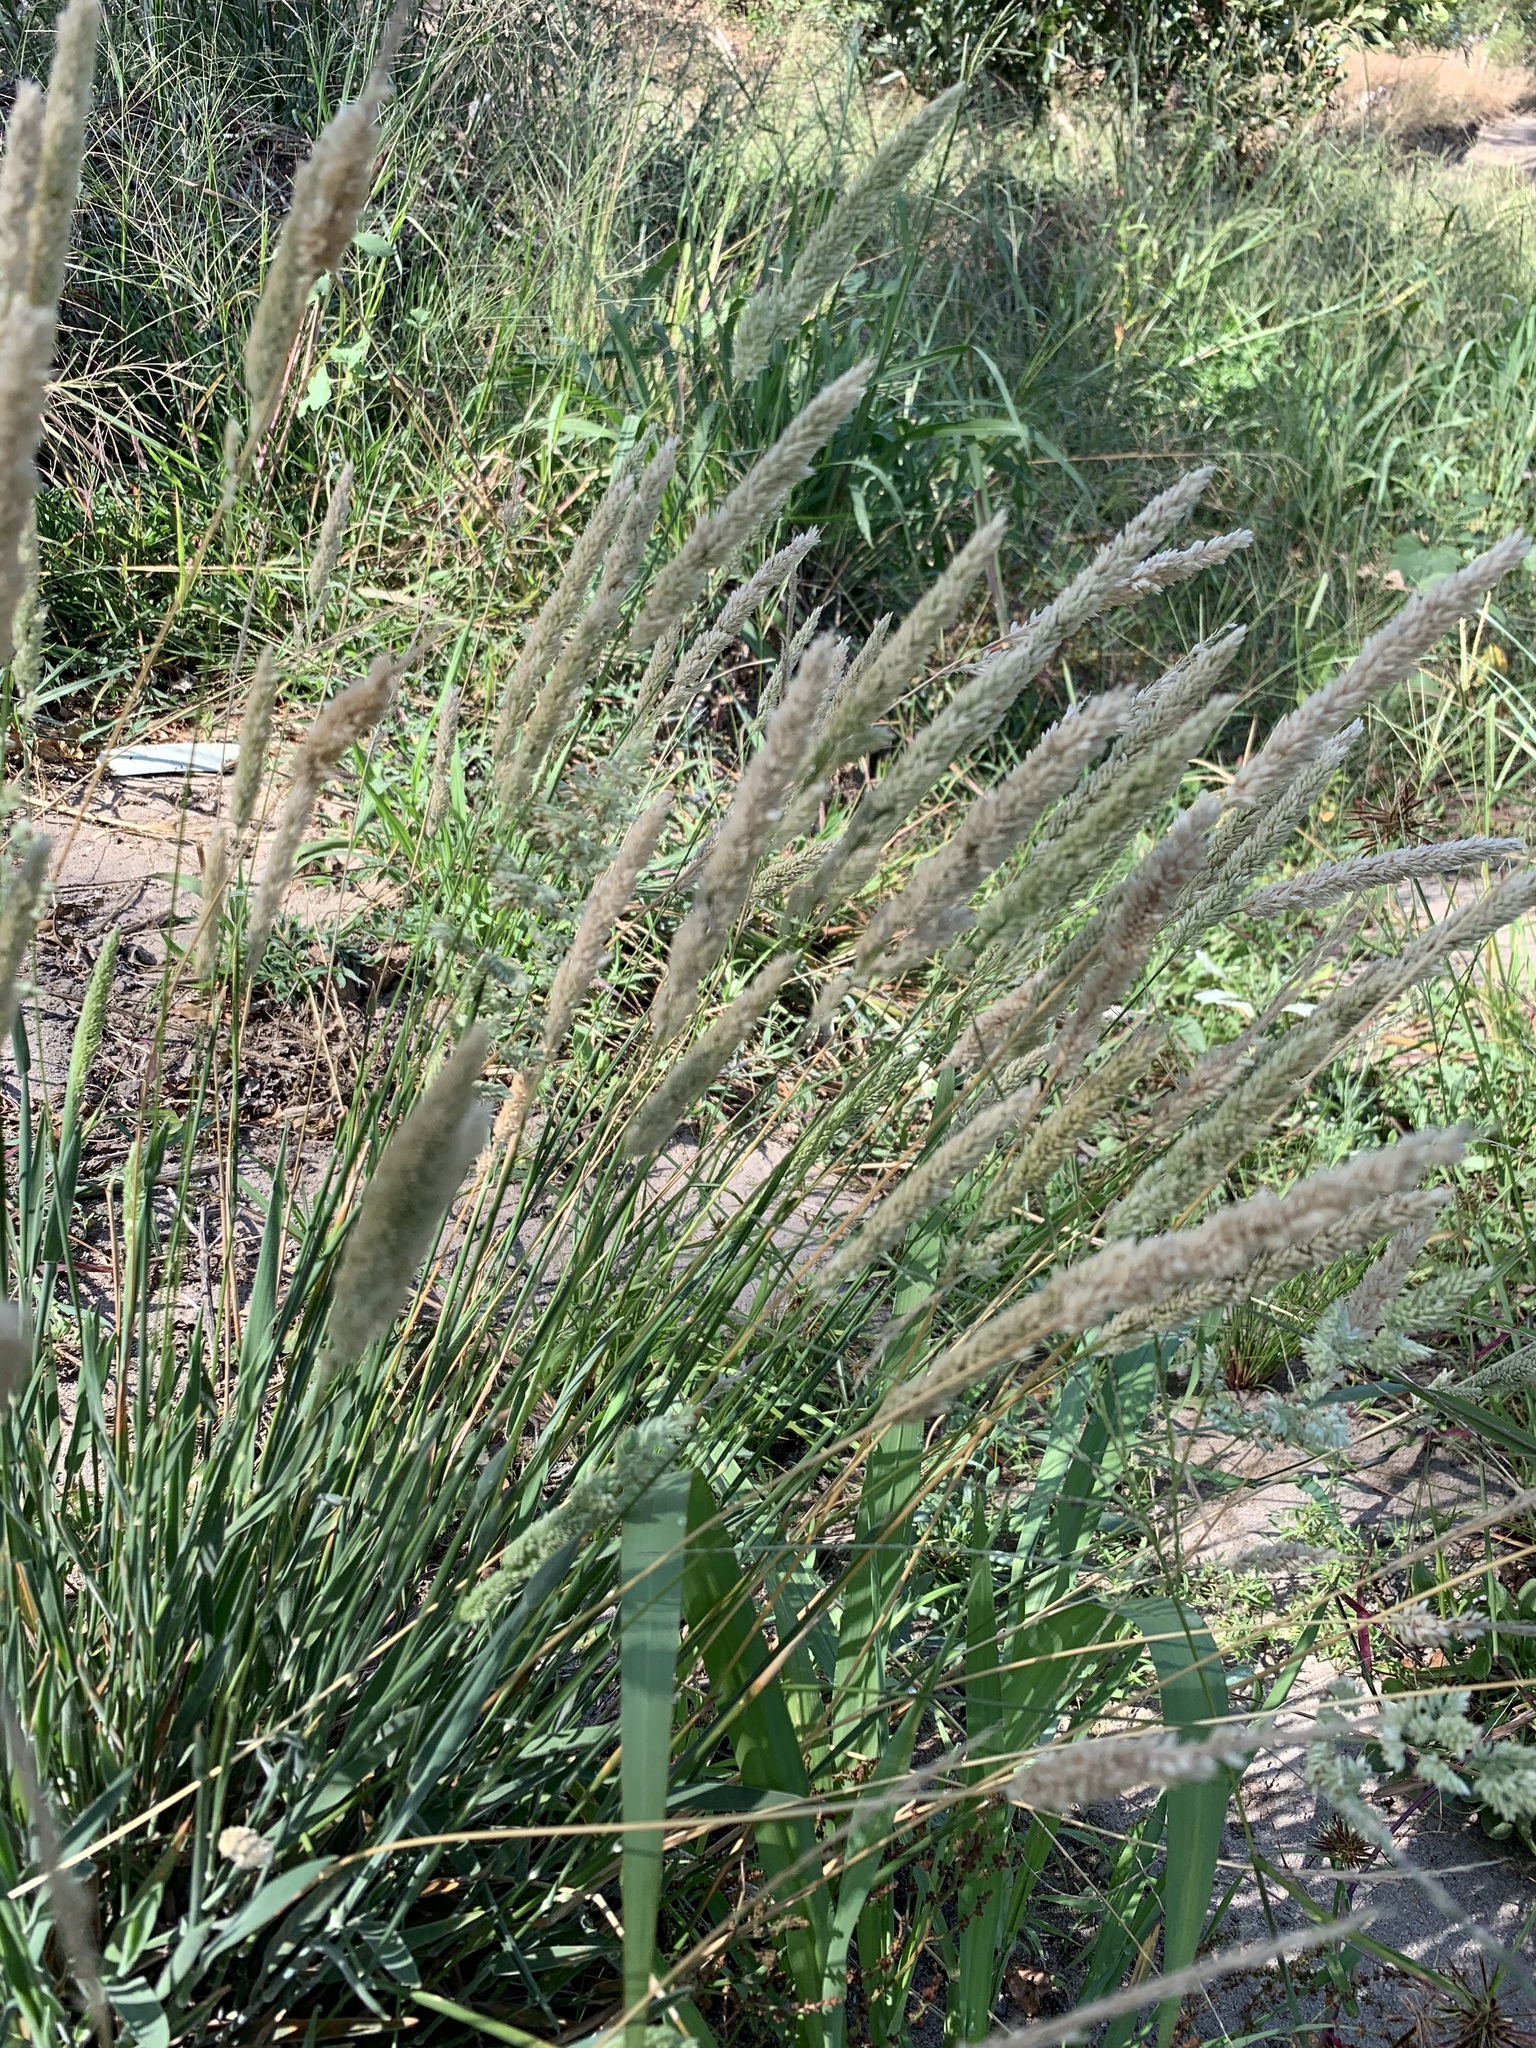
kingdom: Plantae
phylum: Tracheophyta
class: Liliopsida
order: Poales
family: Poaceae
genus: Holcus
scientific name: Holcus lanatus
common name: Yorkshire-fog
